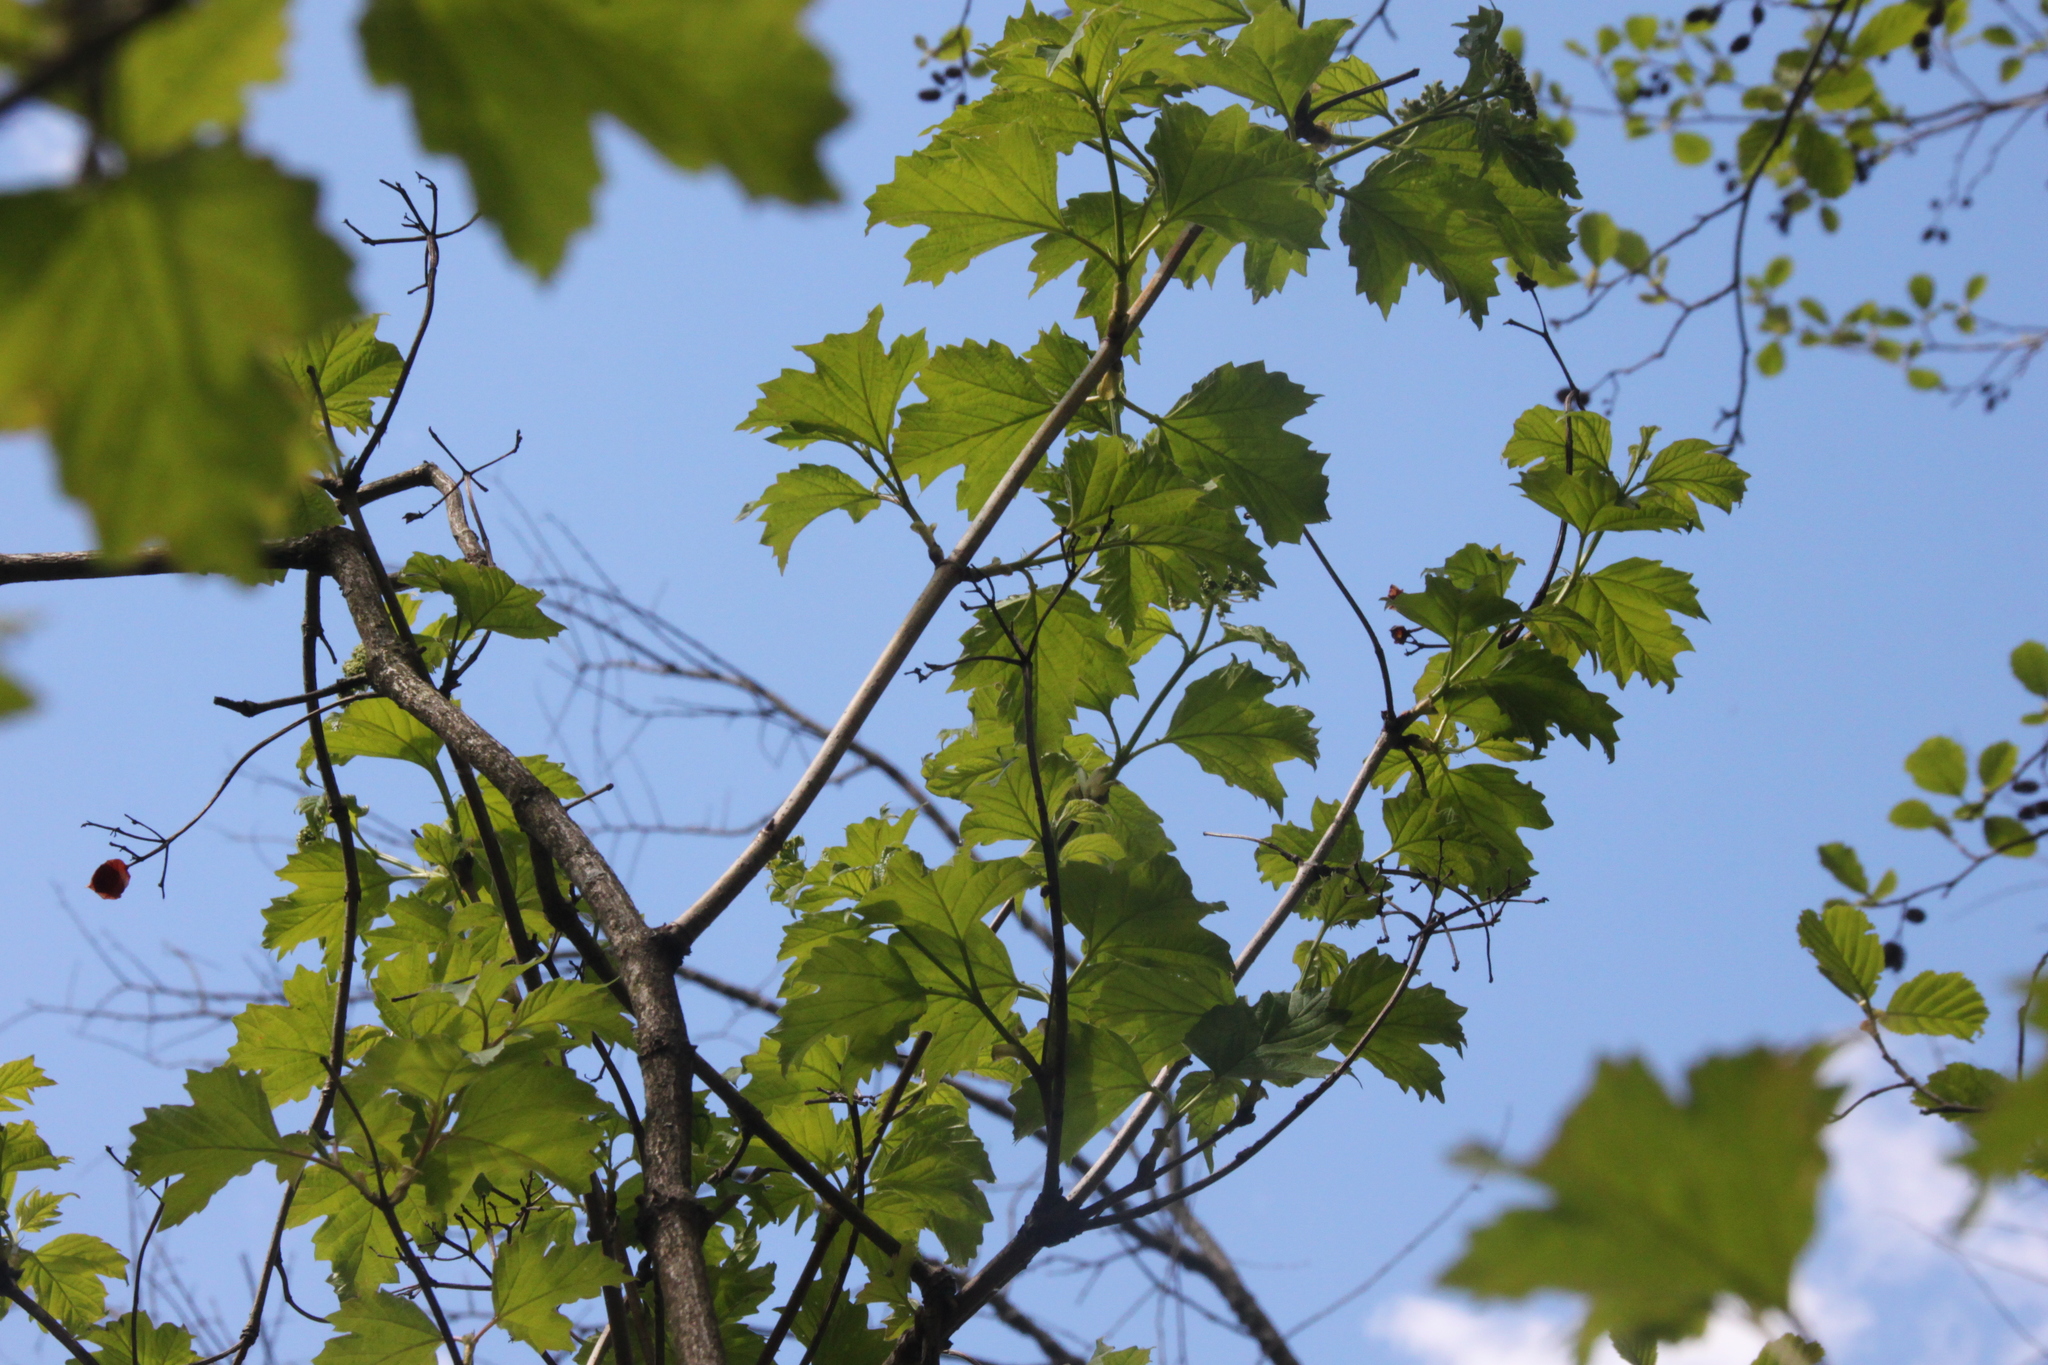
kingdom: Plantae
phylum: Tracheophyta
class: Magnoliopsida
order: Dipsacales
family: Viburnaceae
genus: Viburnum
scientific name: Viburnum opulus
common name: Guelder-rose
